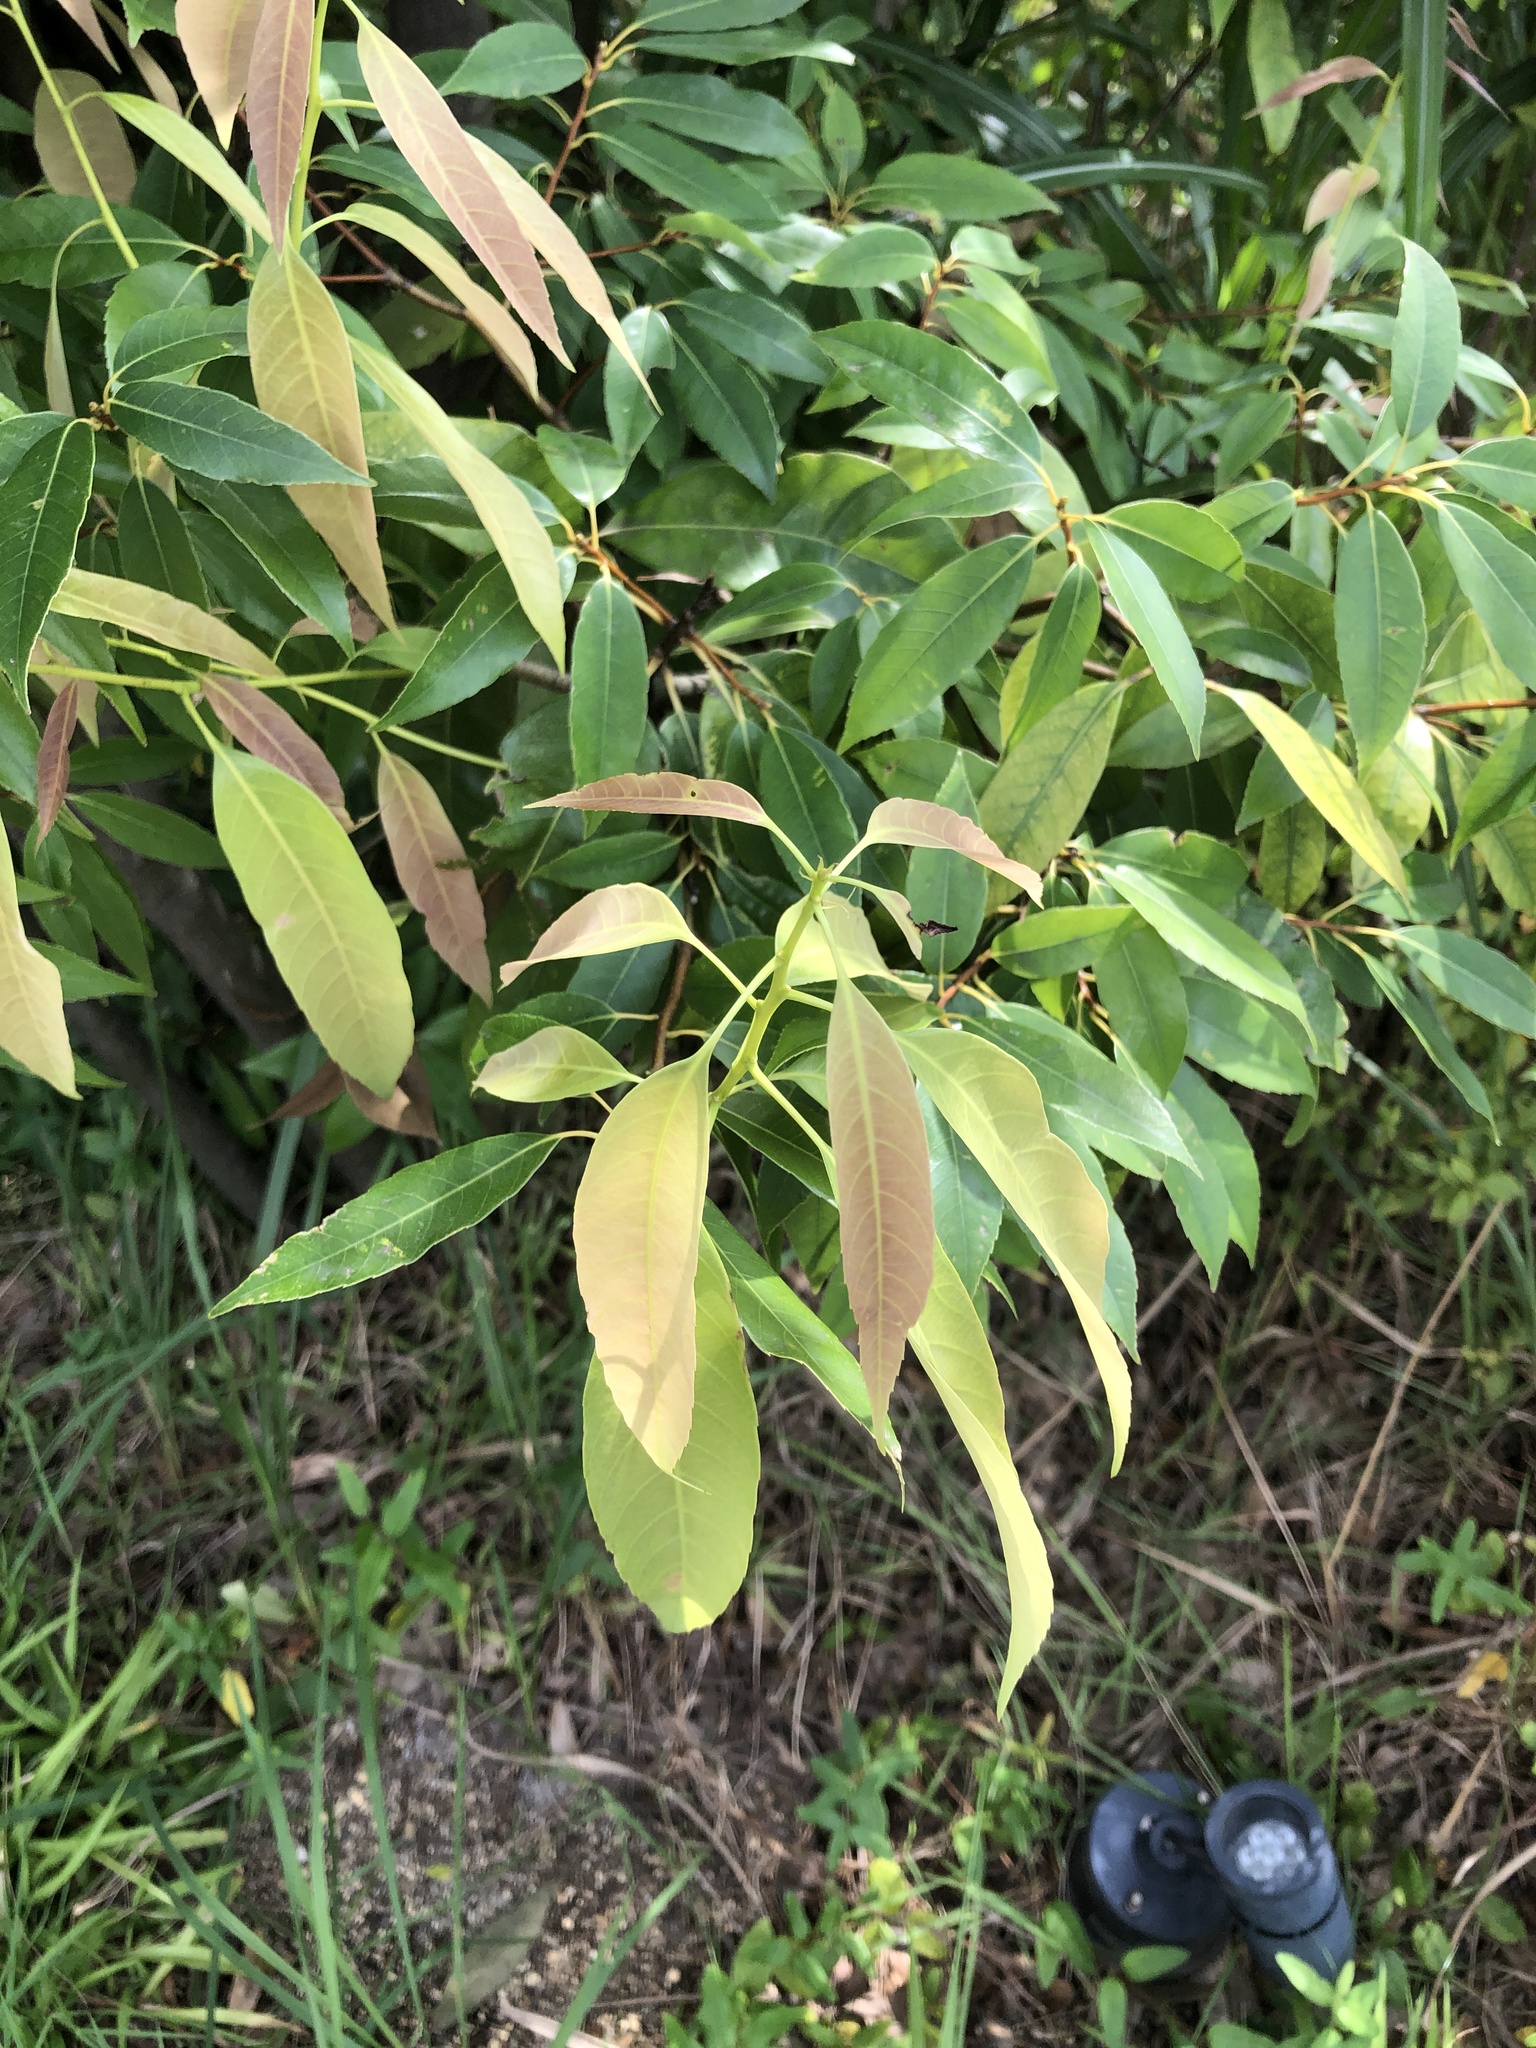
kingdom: Plantae
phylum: Tracheophyta
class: Magnoliopsida
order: Fagales
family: Fagaceae
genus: Quercus
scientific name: Quercus myrsinifolia
